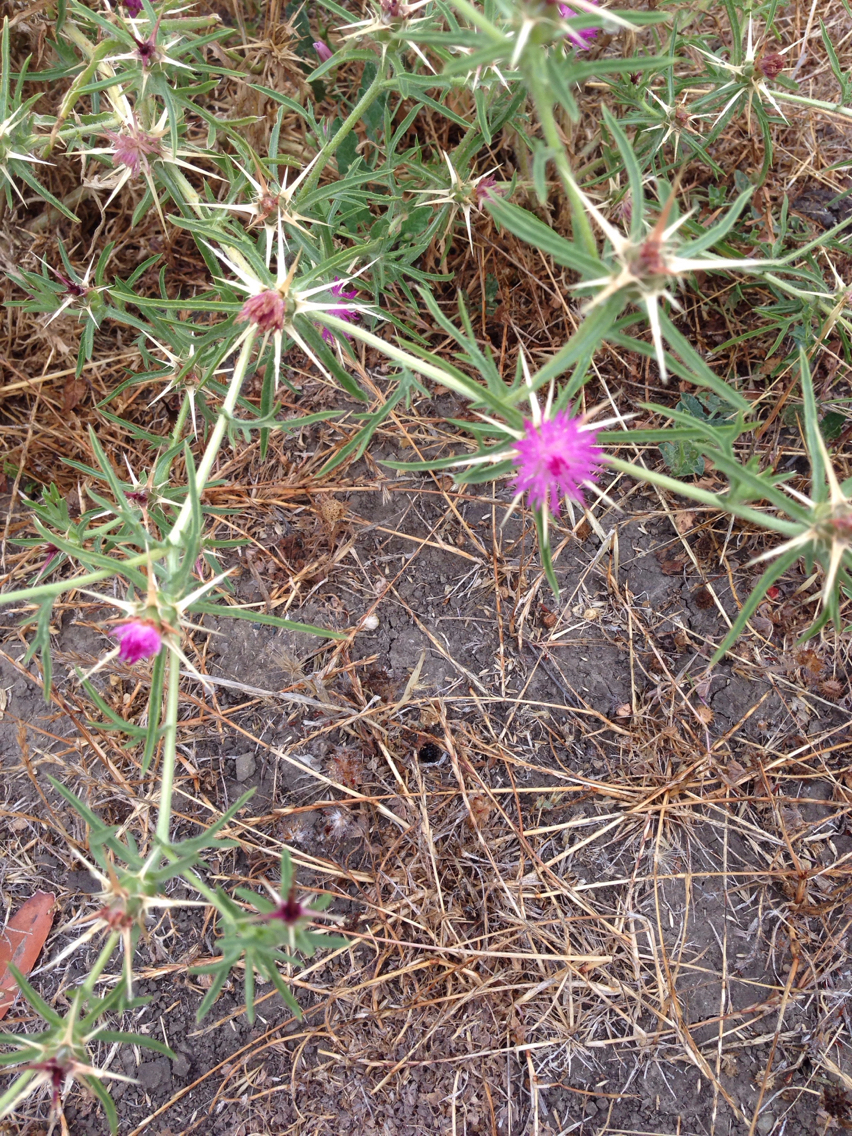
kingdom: Plantae
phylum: Tracheophyta
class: Magnoliopsida
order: Asterales
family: Asteraceae
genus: Centaurea
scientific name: Centaurea calcitrapa
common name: Red star-thistle
